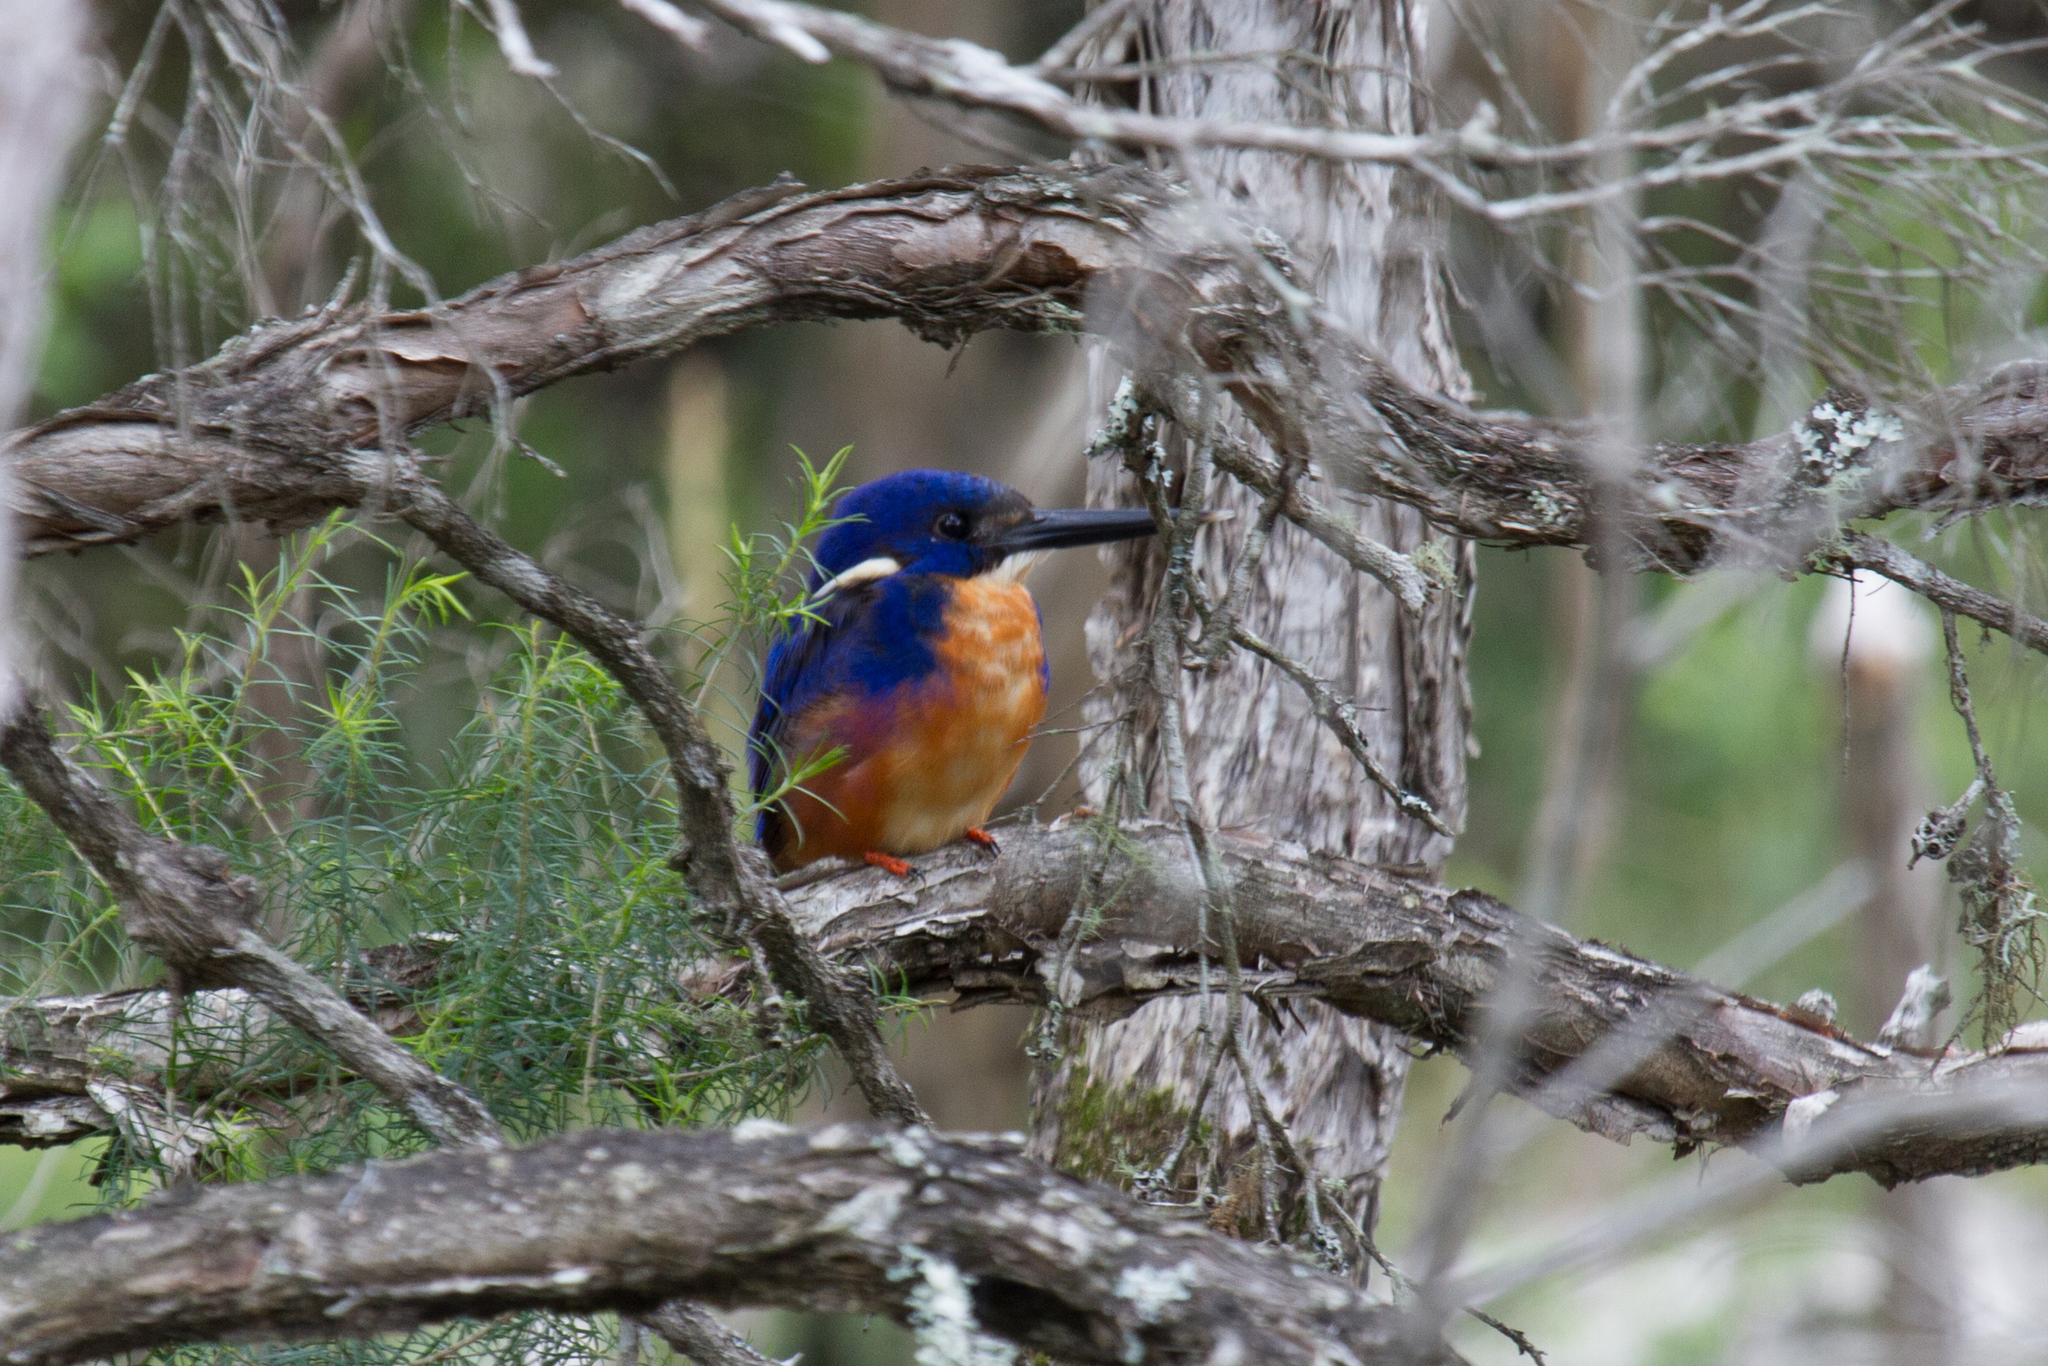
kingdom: Animalia
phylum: Chordata
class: Aves
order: Coraciiformes
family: Alcedinidae
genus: Ceyx
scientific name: Ceyx azureus
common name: Azure kingfisher
